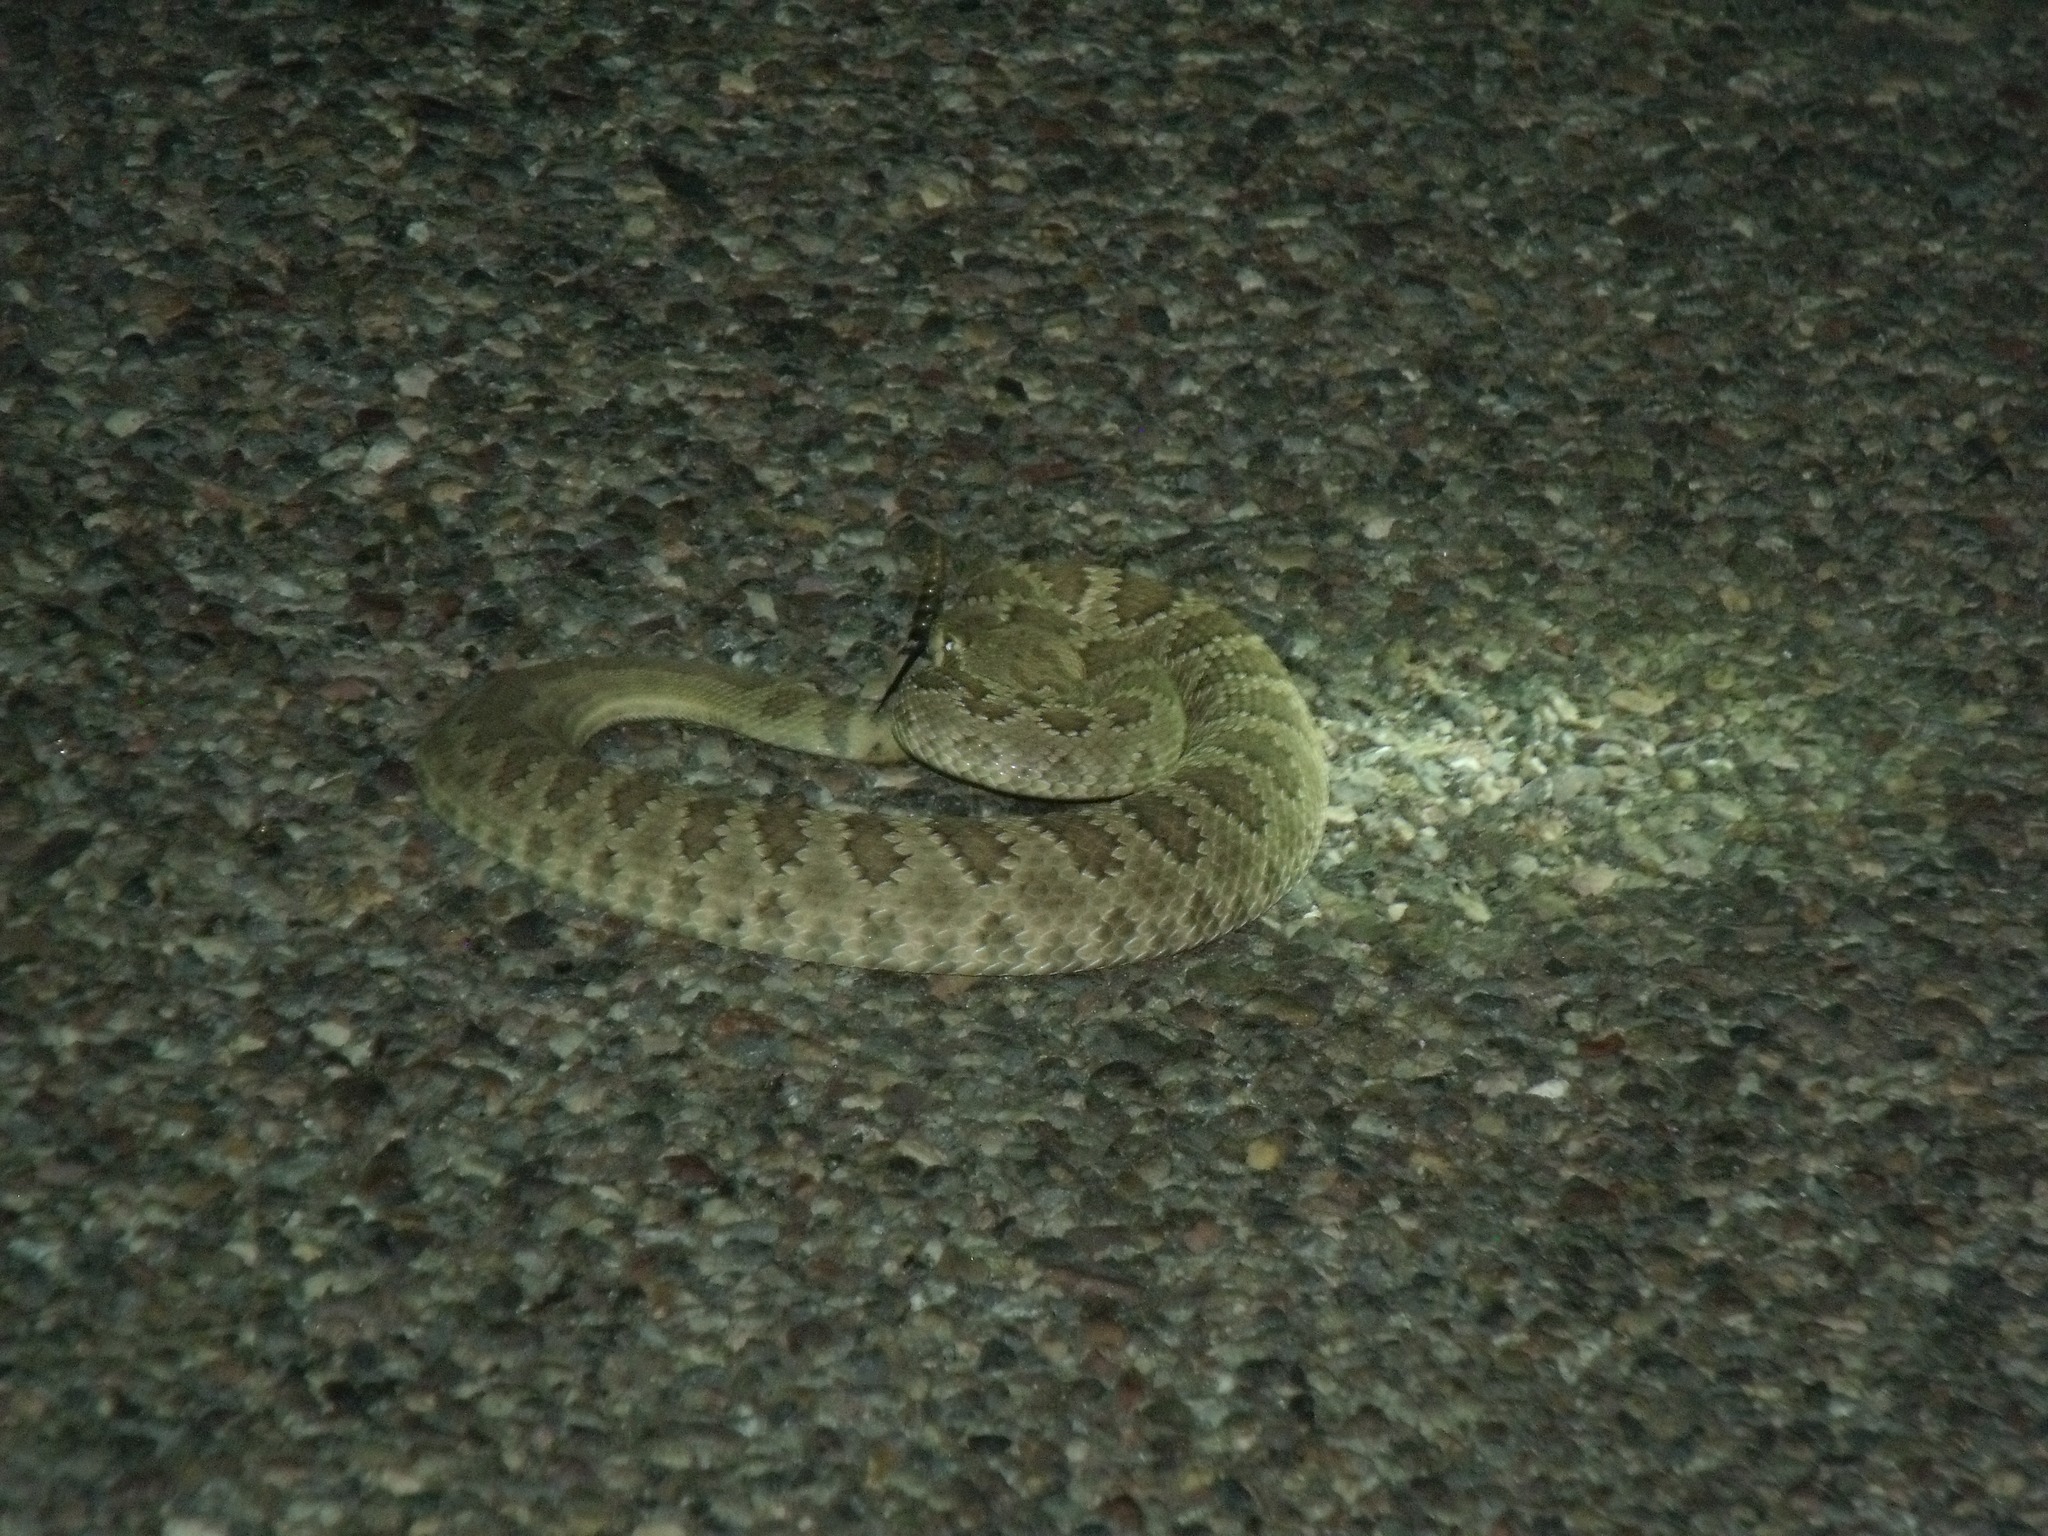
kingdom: Animalia
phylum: Chordata
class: Squamata
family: Viperidae
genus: Crotalus
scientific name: Crotalus scutulatus
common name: Scutulatus
